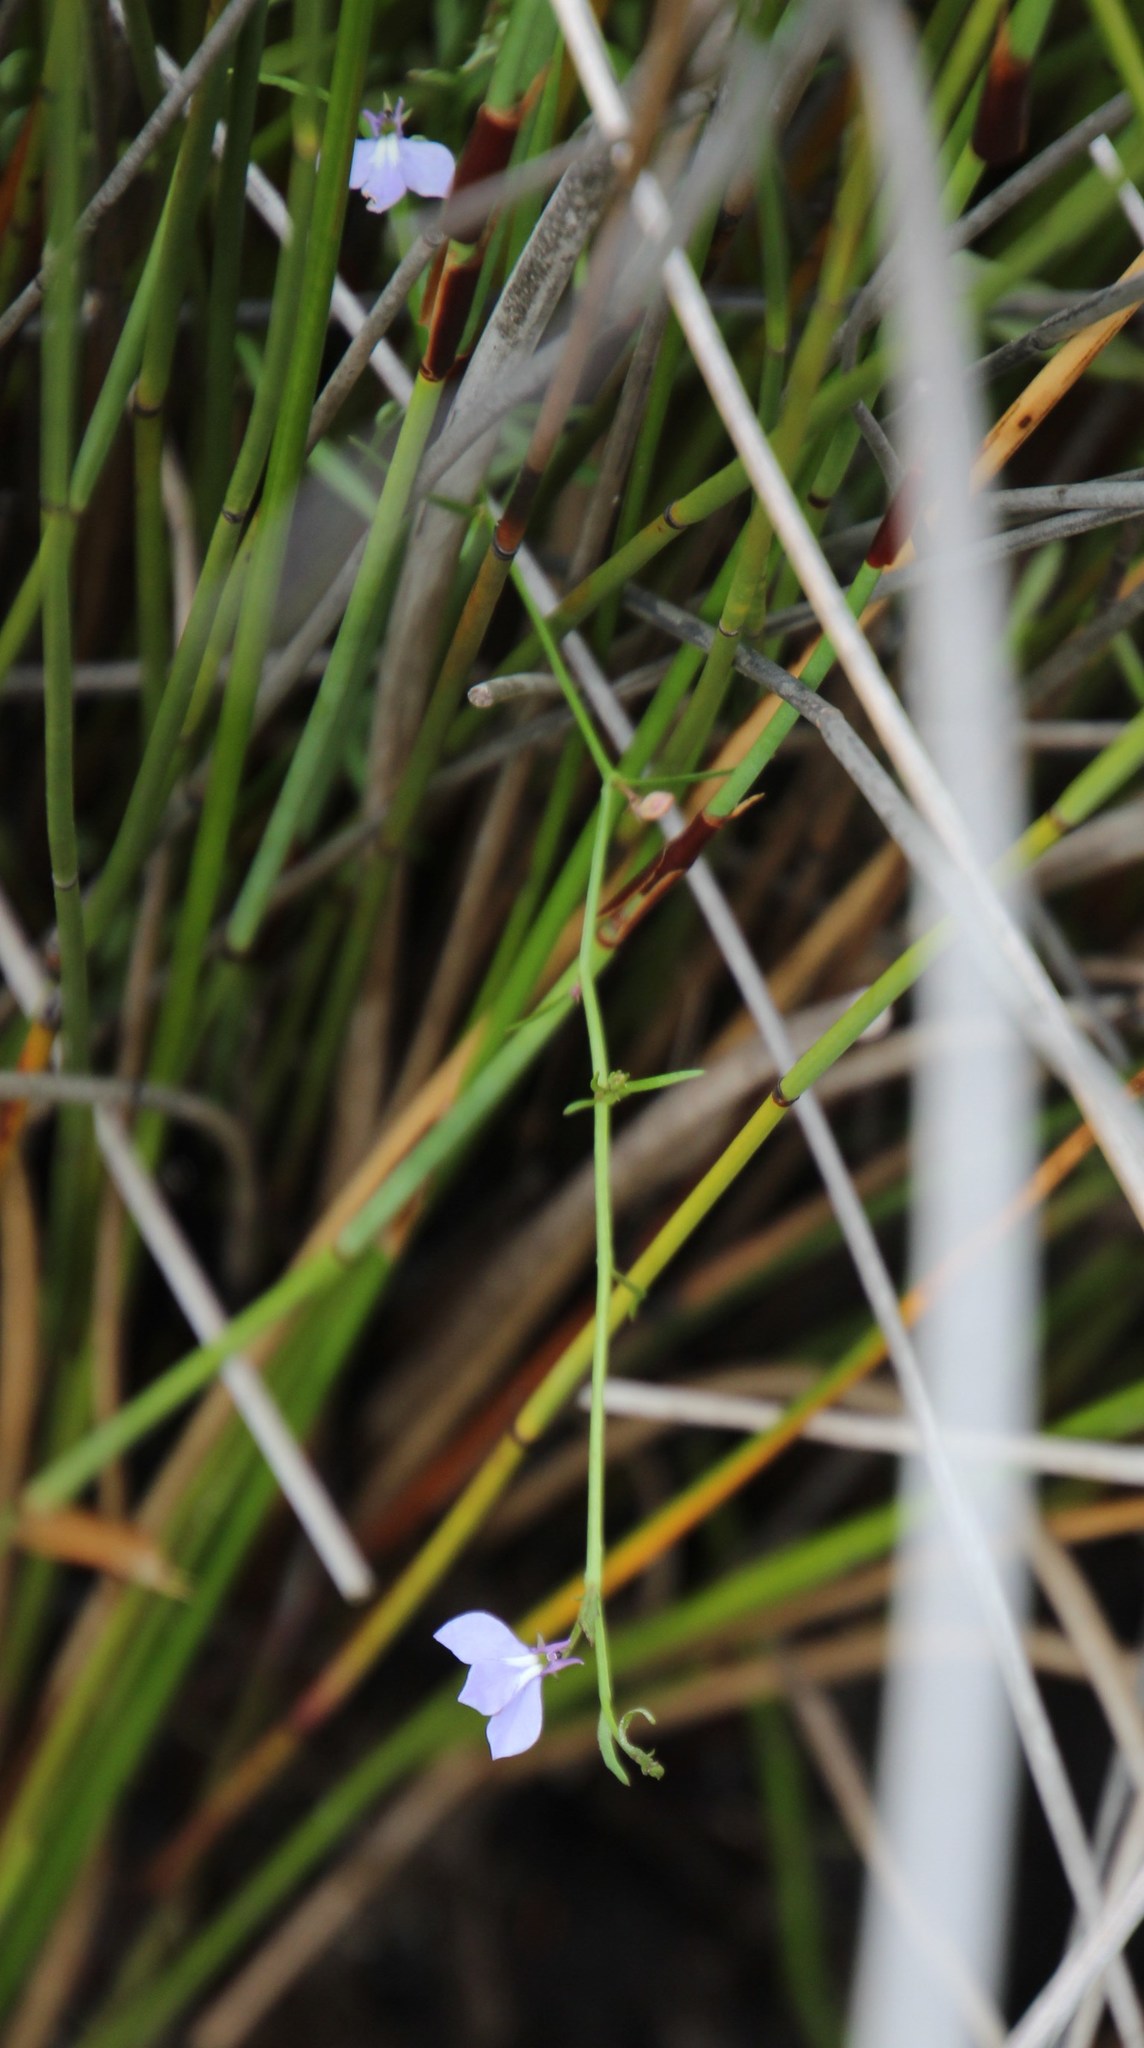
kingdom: Plantae
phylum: Tracheophyta
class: Magnoliopsida
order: Asterales
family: Campanulaceae
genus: Grammatotheca
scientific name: Grammatotheca bergiana
